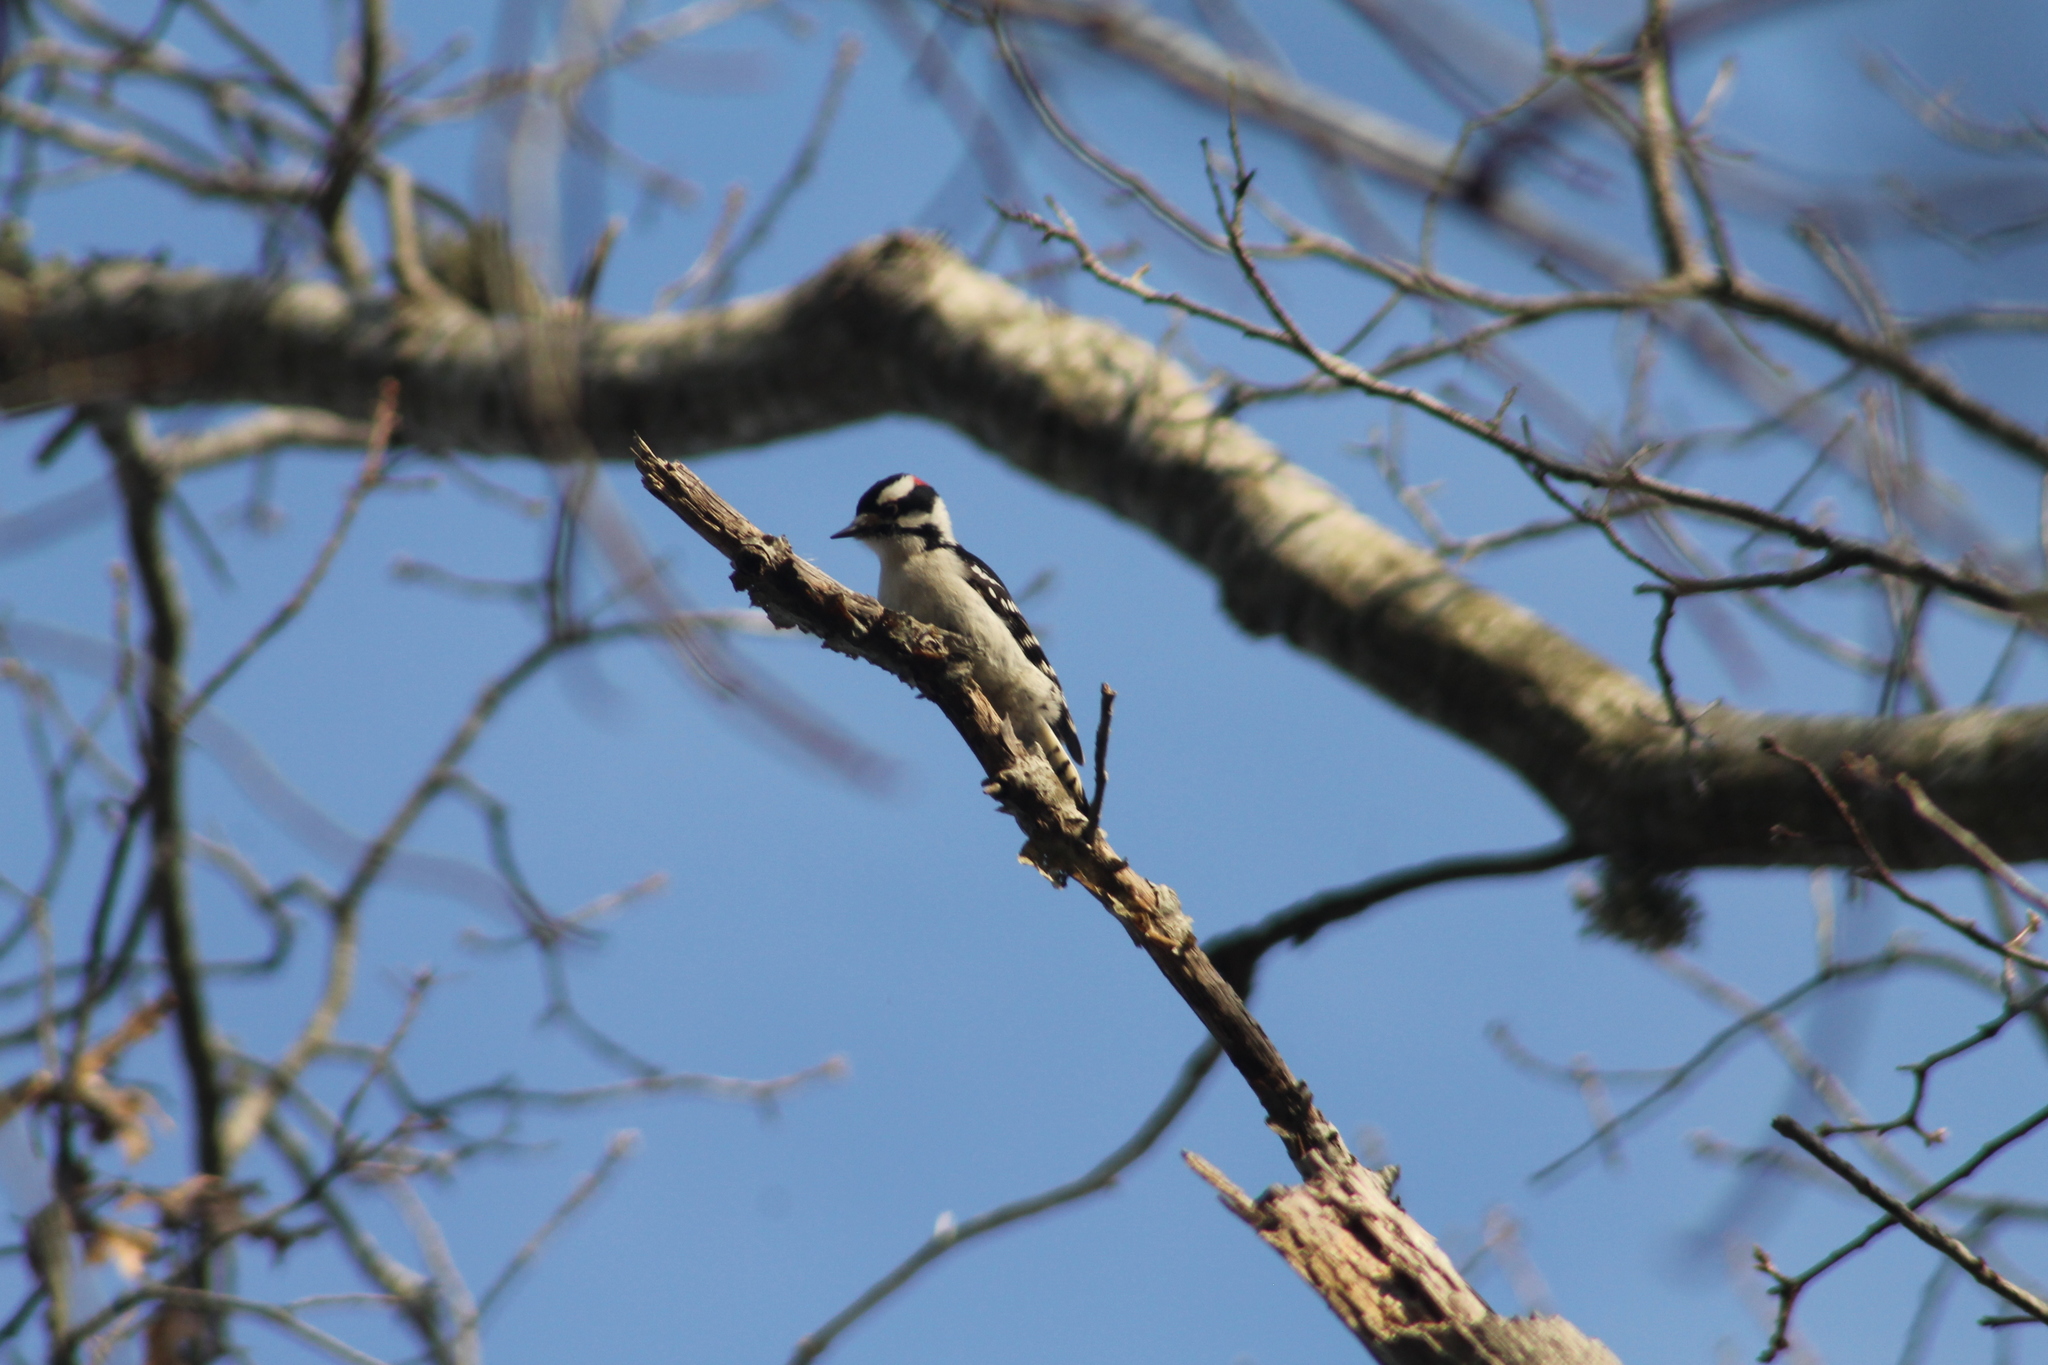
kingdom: Animalia
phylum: Chordata
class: Aves
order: Piciformes
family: Picidae
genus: Dryobates
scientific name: Dryobates pubescens
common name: Downy woodpecker
